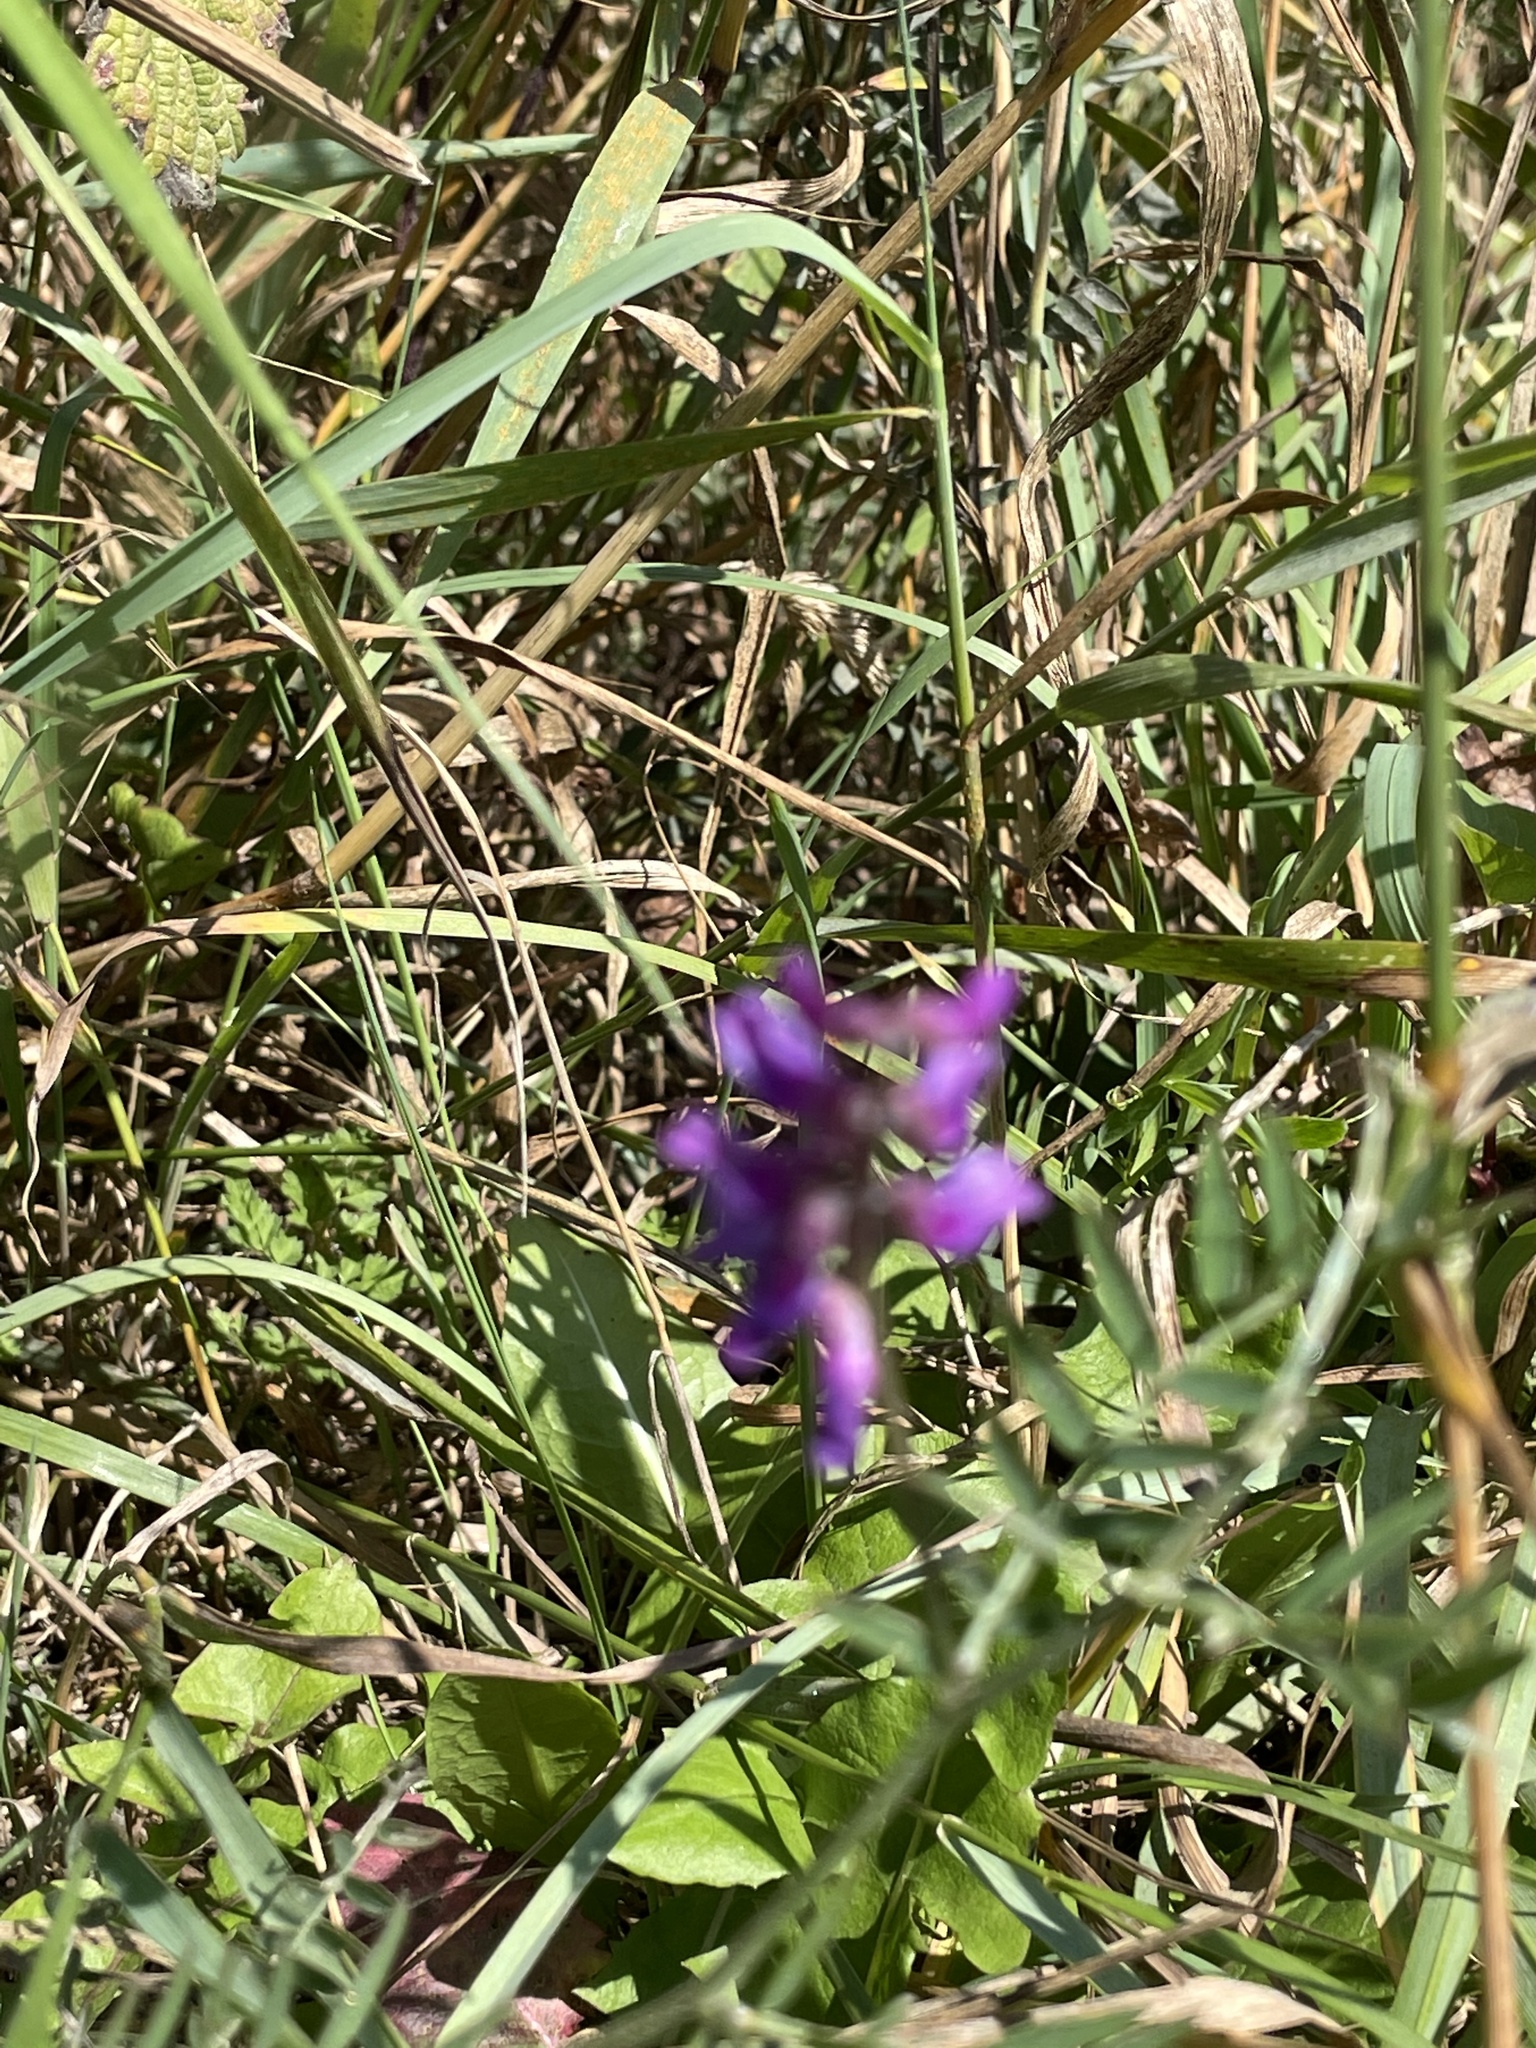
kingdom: Plantae
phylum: Tracheophyta
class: Magnoliopsida
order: Fabales
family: Fabaceae
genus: Vicia
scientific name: Vicia cracca
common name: Bird vetch
